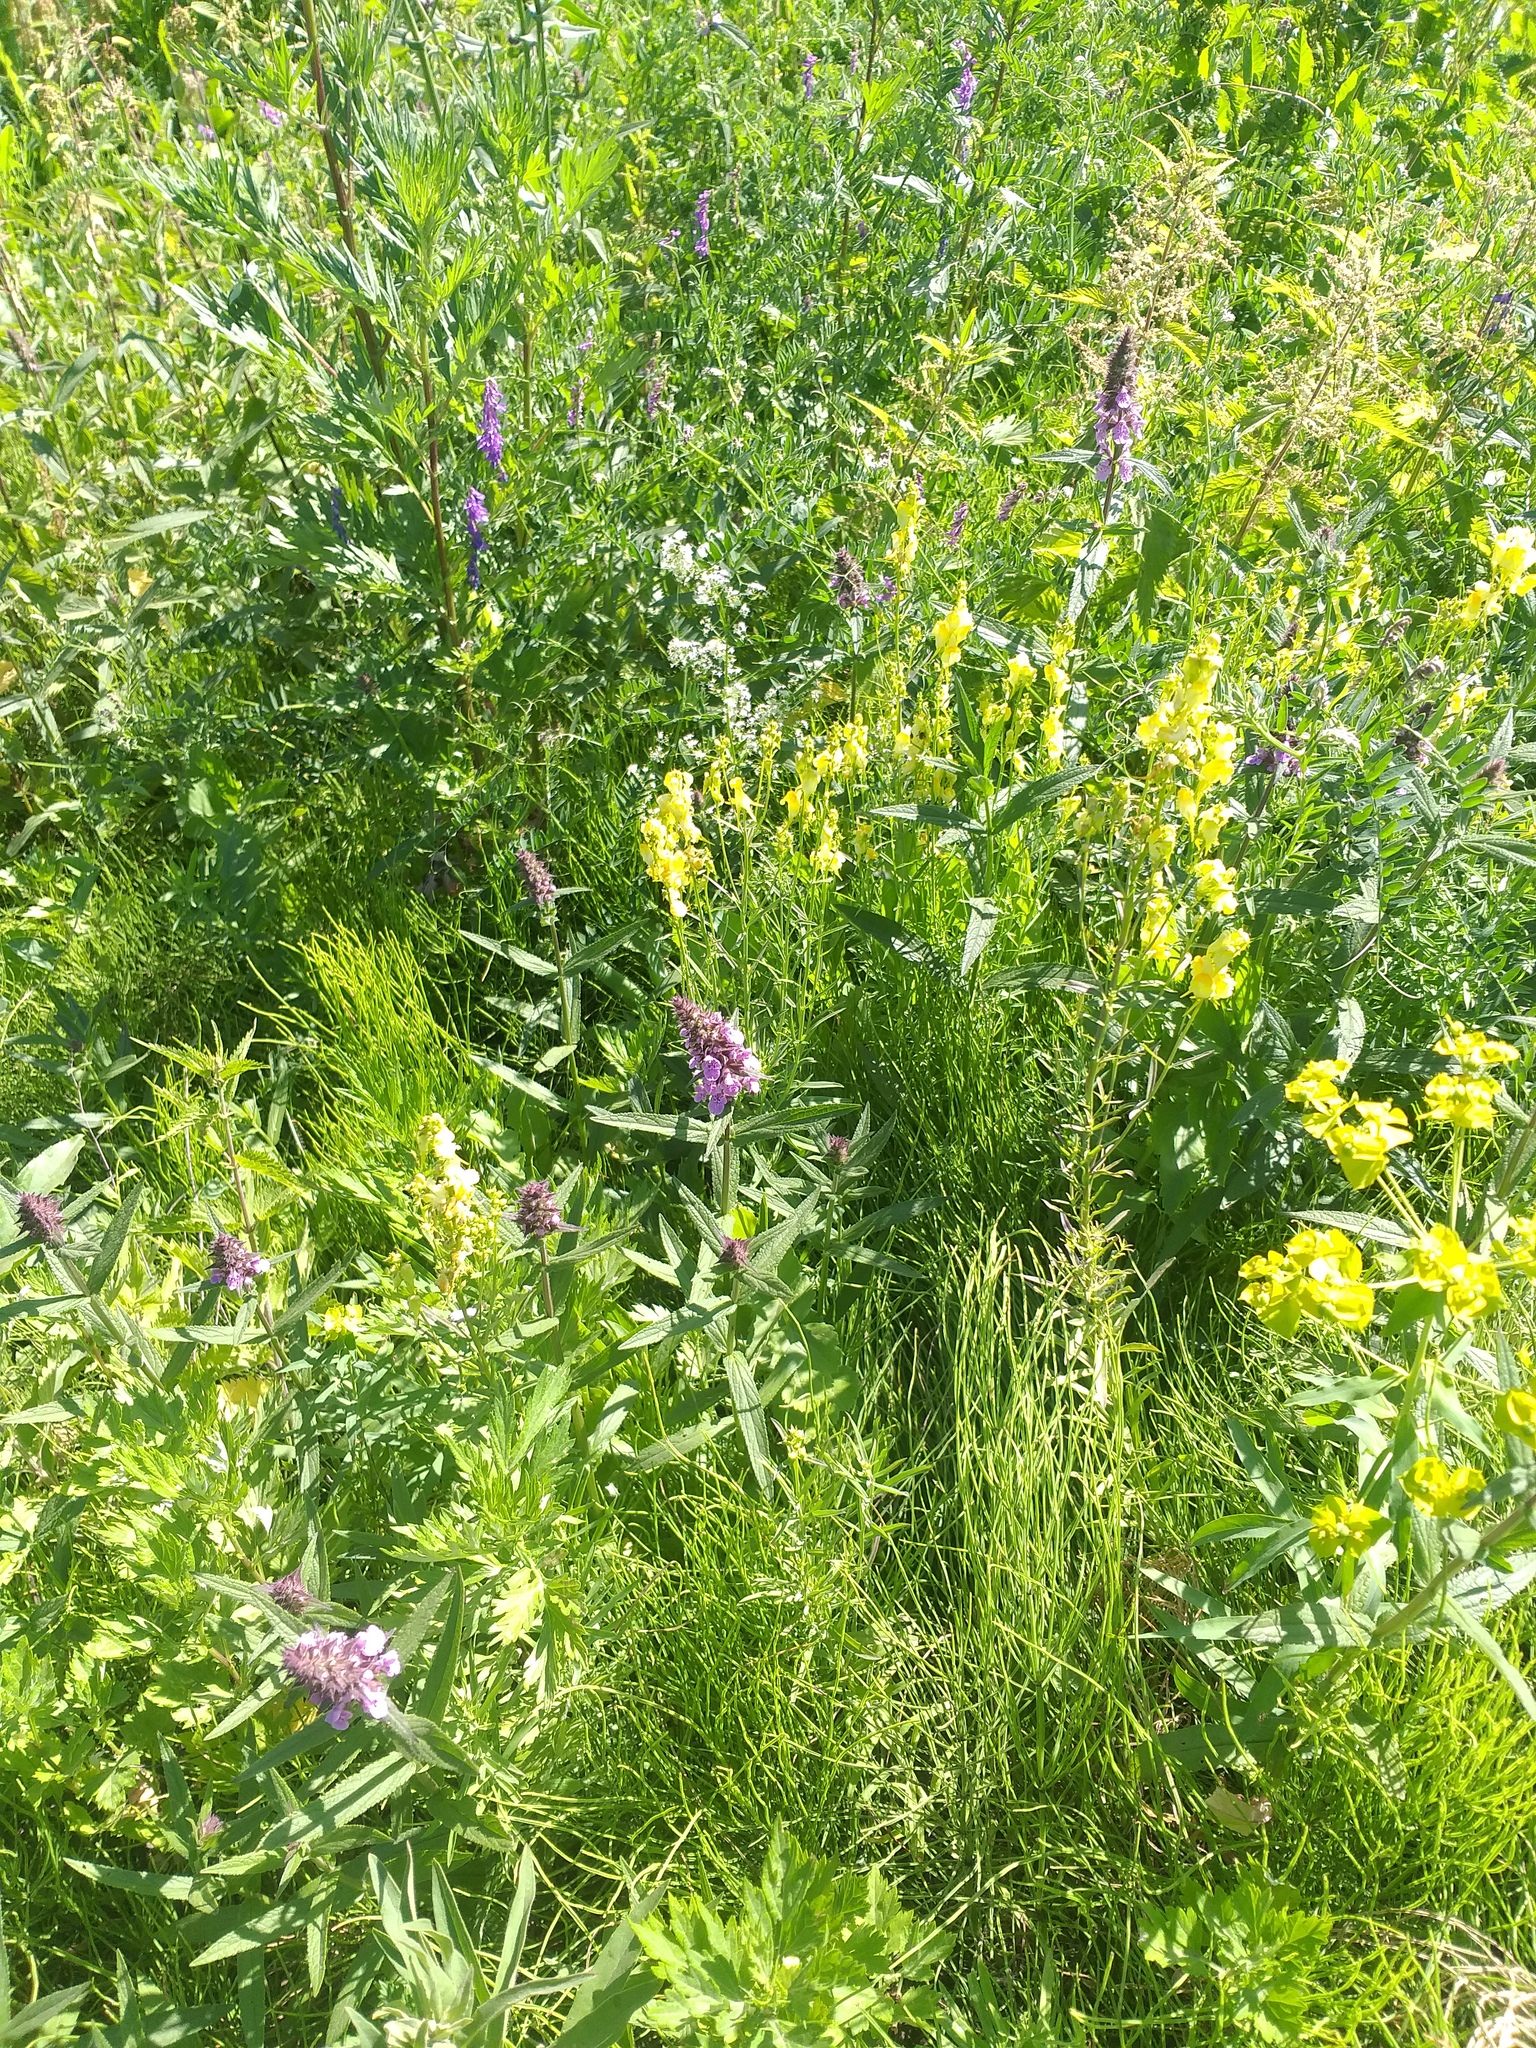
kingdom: Plantae
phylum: Tracheophyta
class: Magnoliopsida
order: Lamiales
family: Lamiaceae
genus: Stachys
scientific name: Stachys palustris
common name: Marsh woundwort
